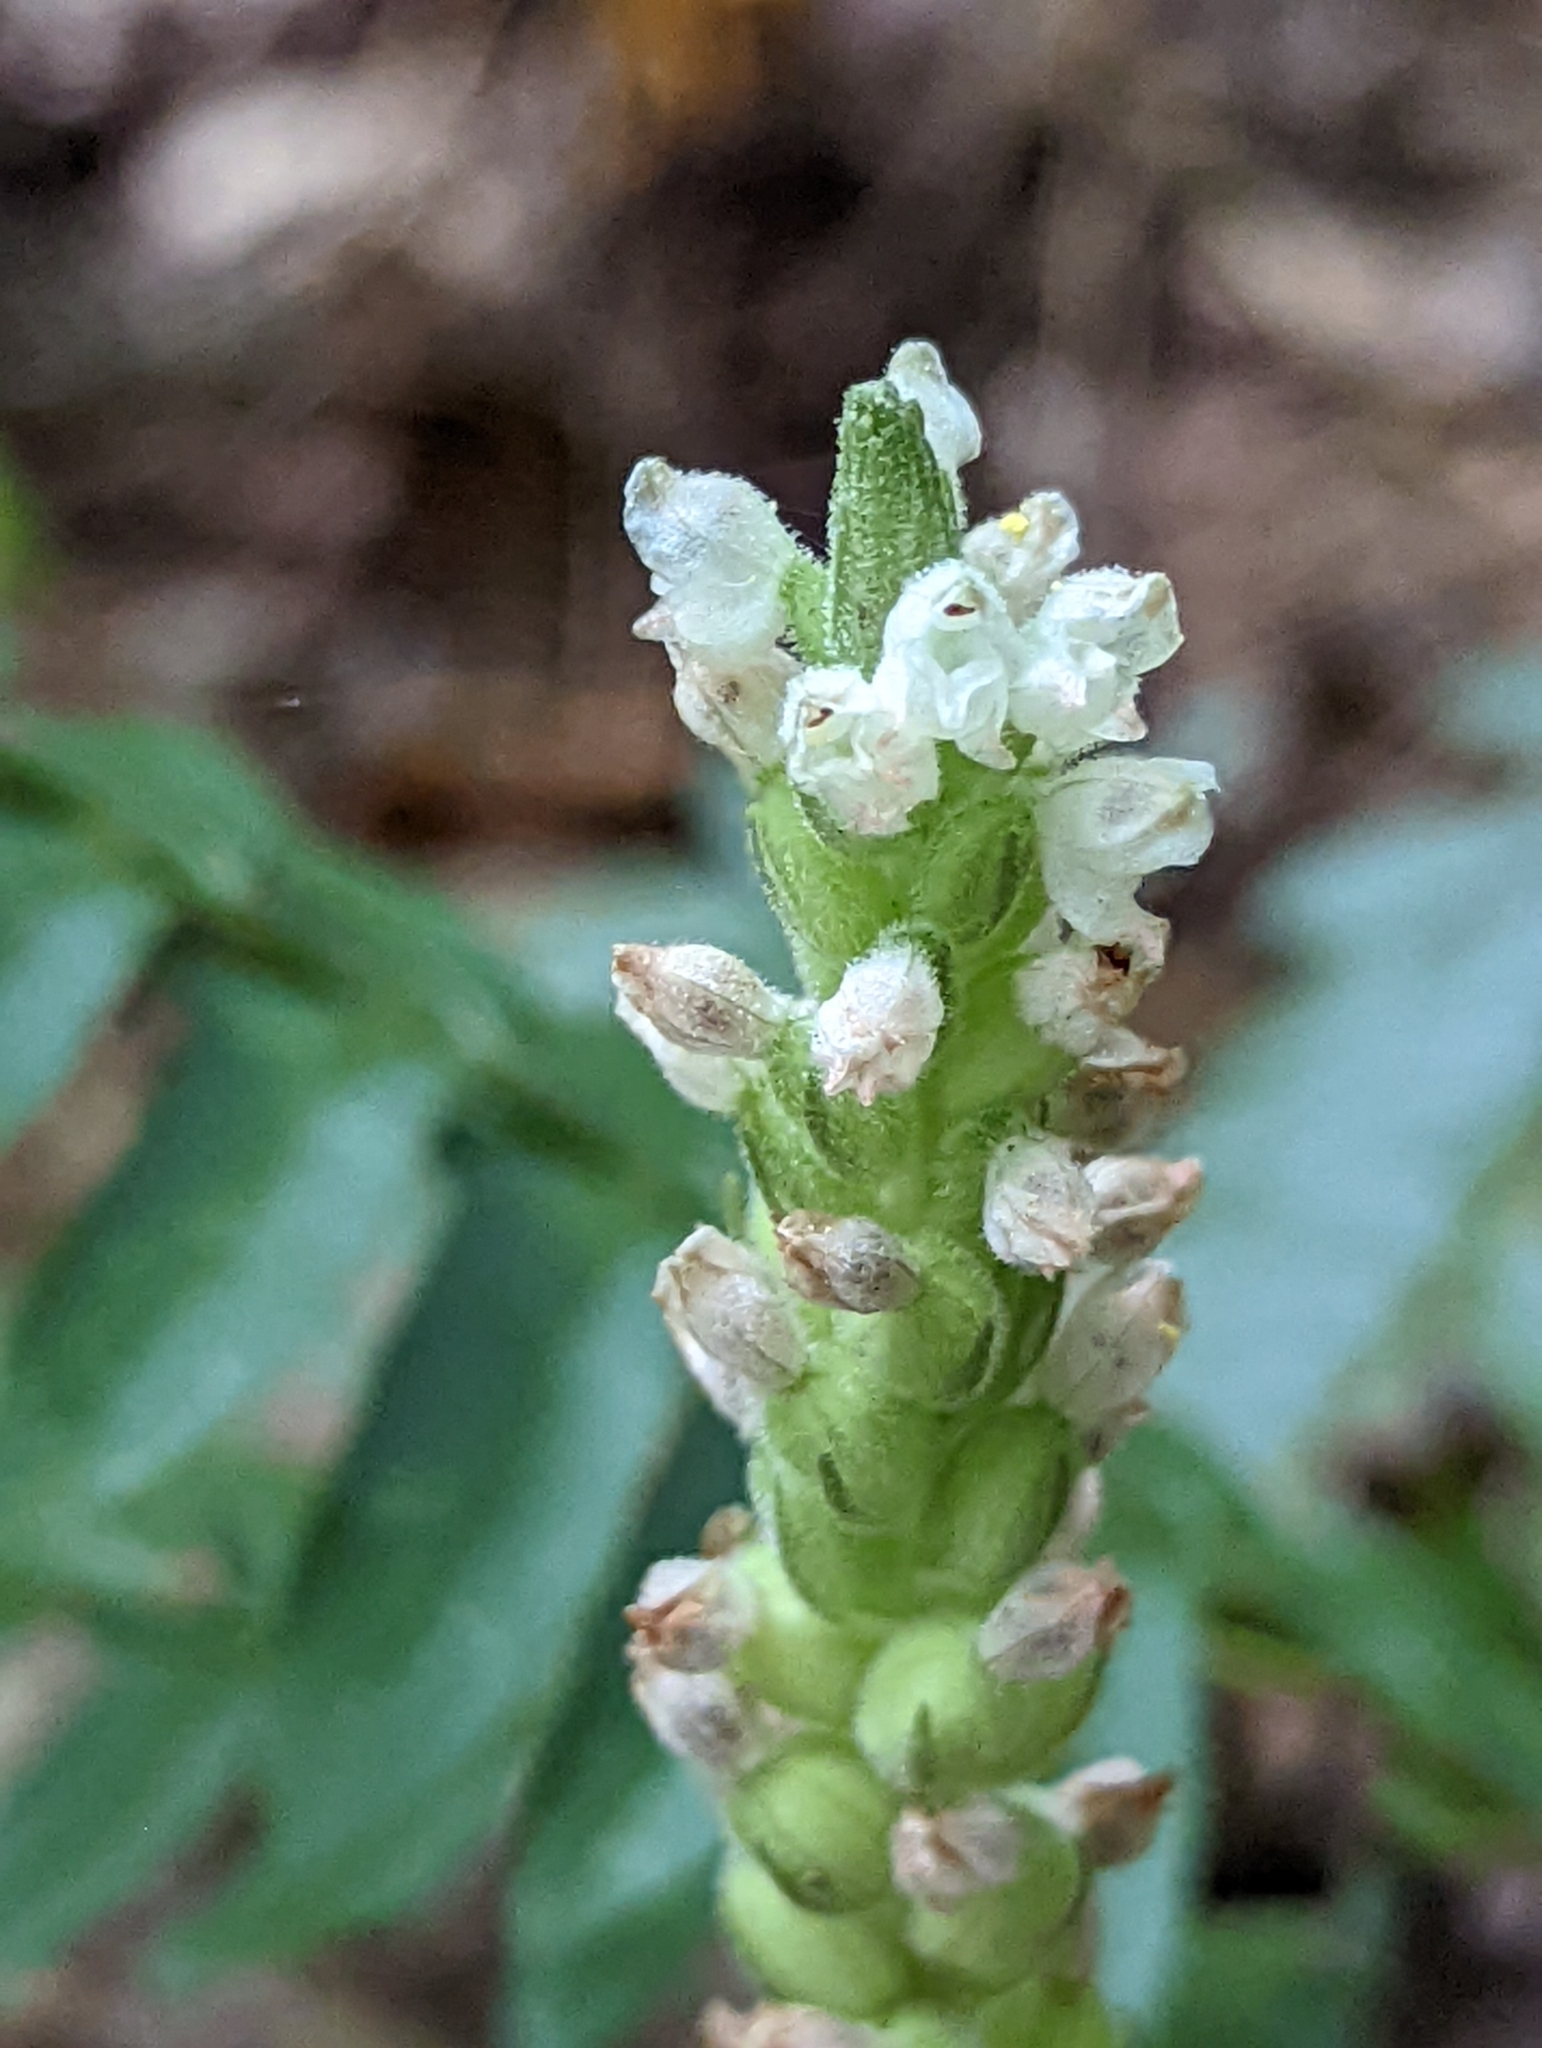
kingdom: Plantae
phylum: Tracheophyta
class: Liliopsida
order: Asparagales
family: Orchidaceae
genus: Goodyera
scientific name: Goodyera pubescens
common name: Downy rattlesnake-plantain
